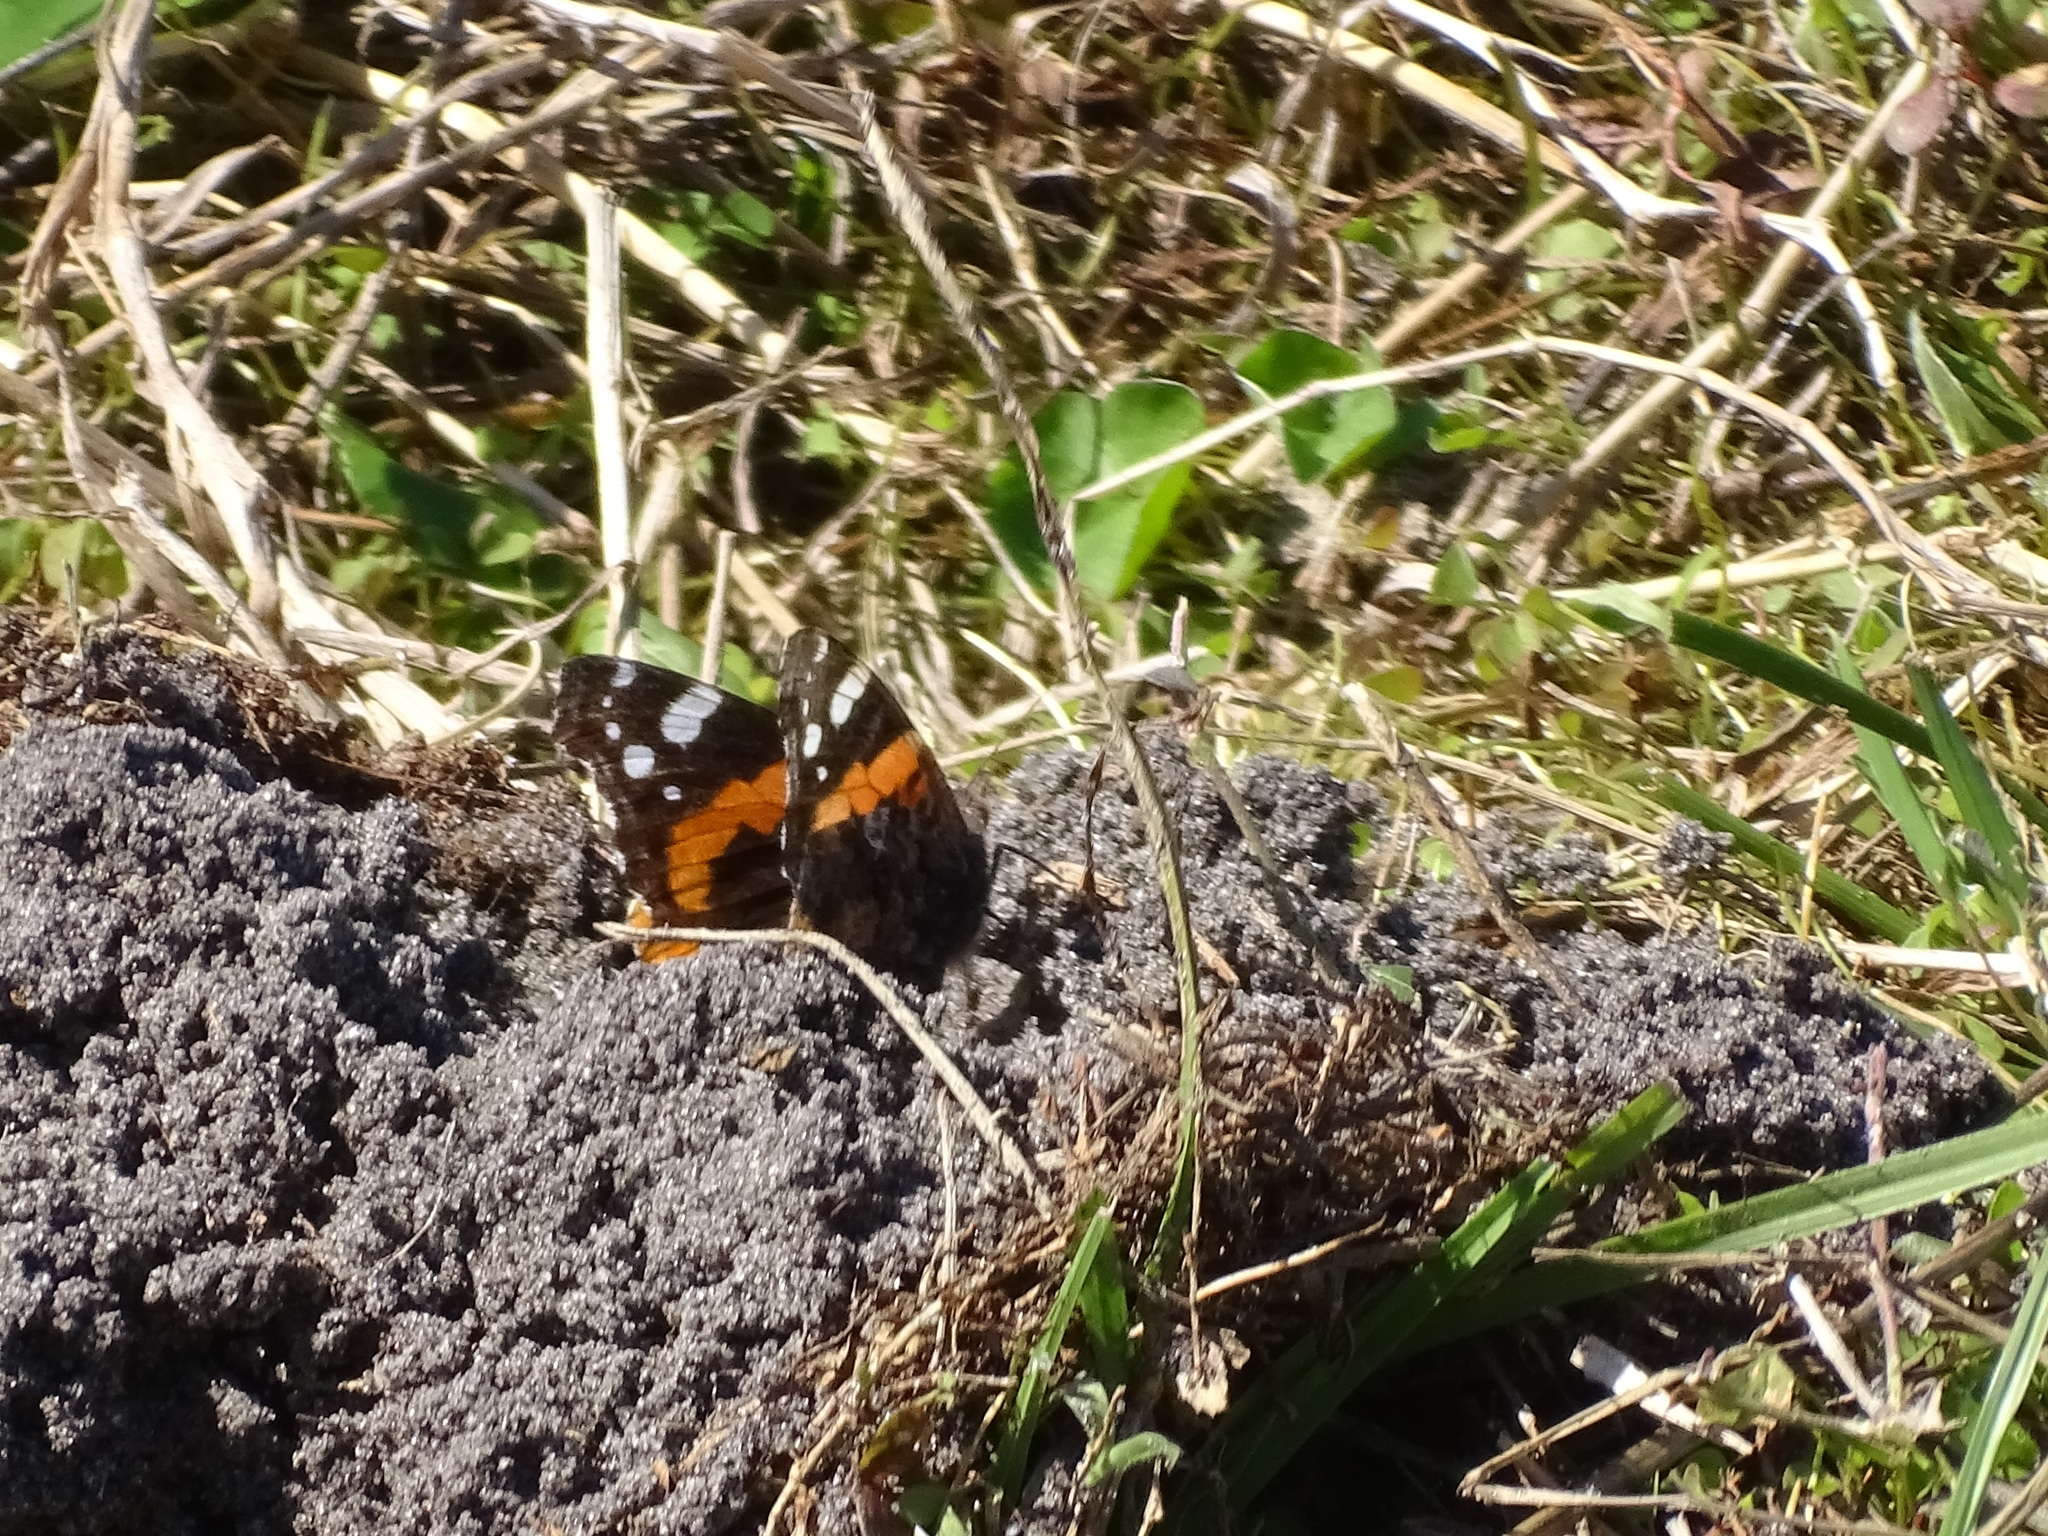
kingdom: Animalia
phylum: Arthropoda
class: Insecta
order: Lepidoptera
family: Nymphalidae
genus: Vanessa
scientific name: Vanessa atalanta
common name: Red admiral
